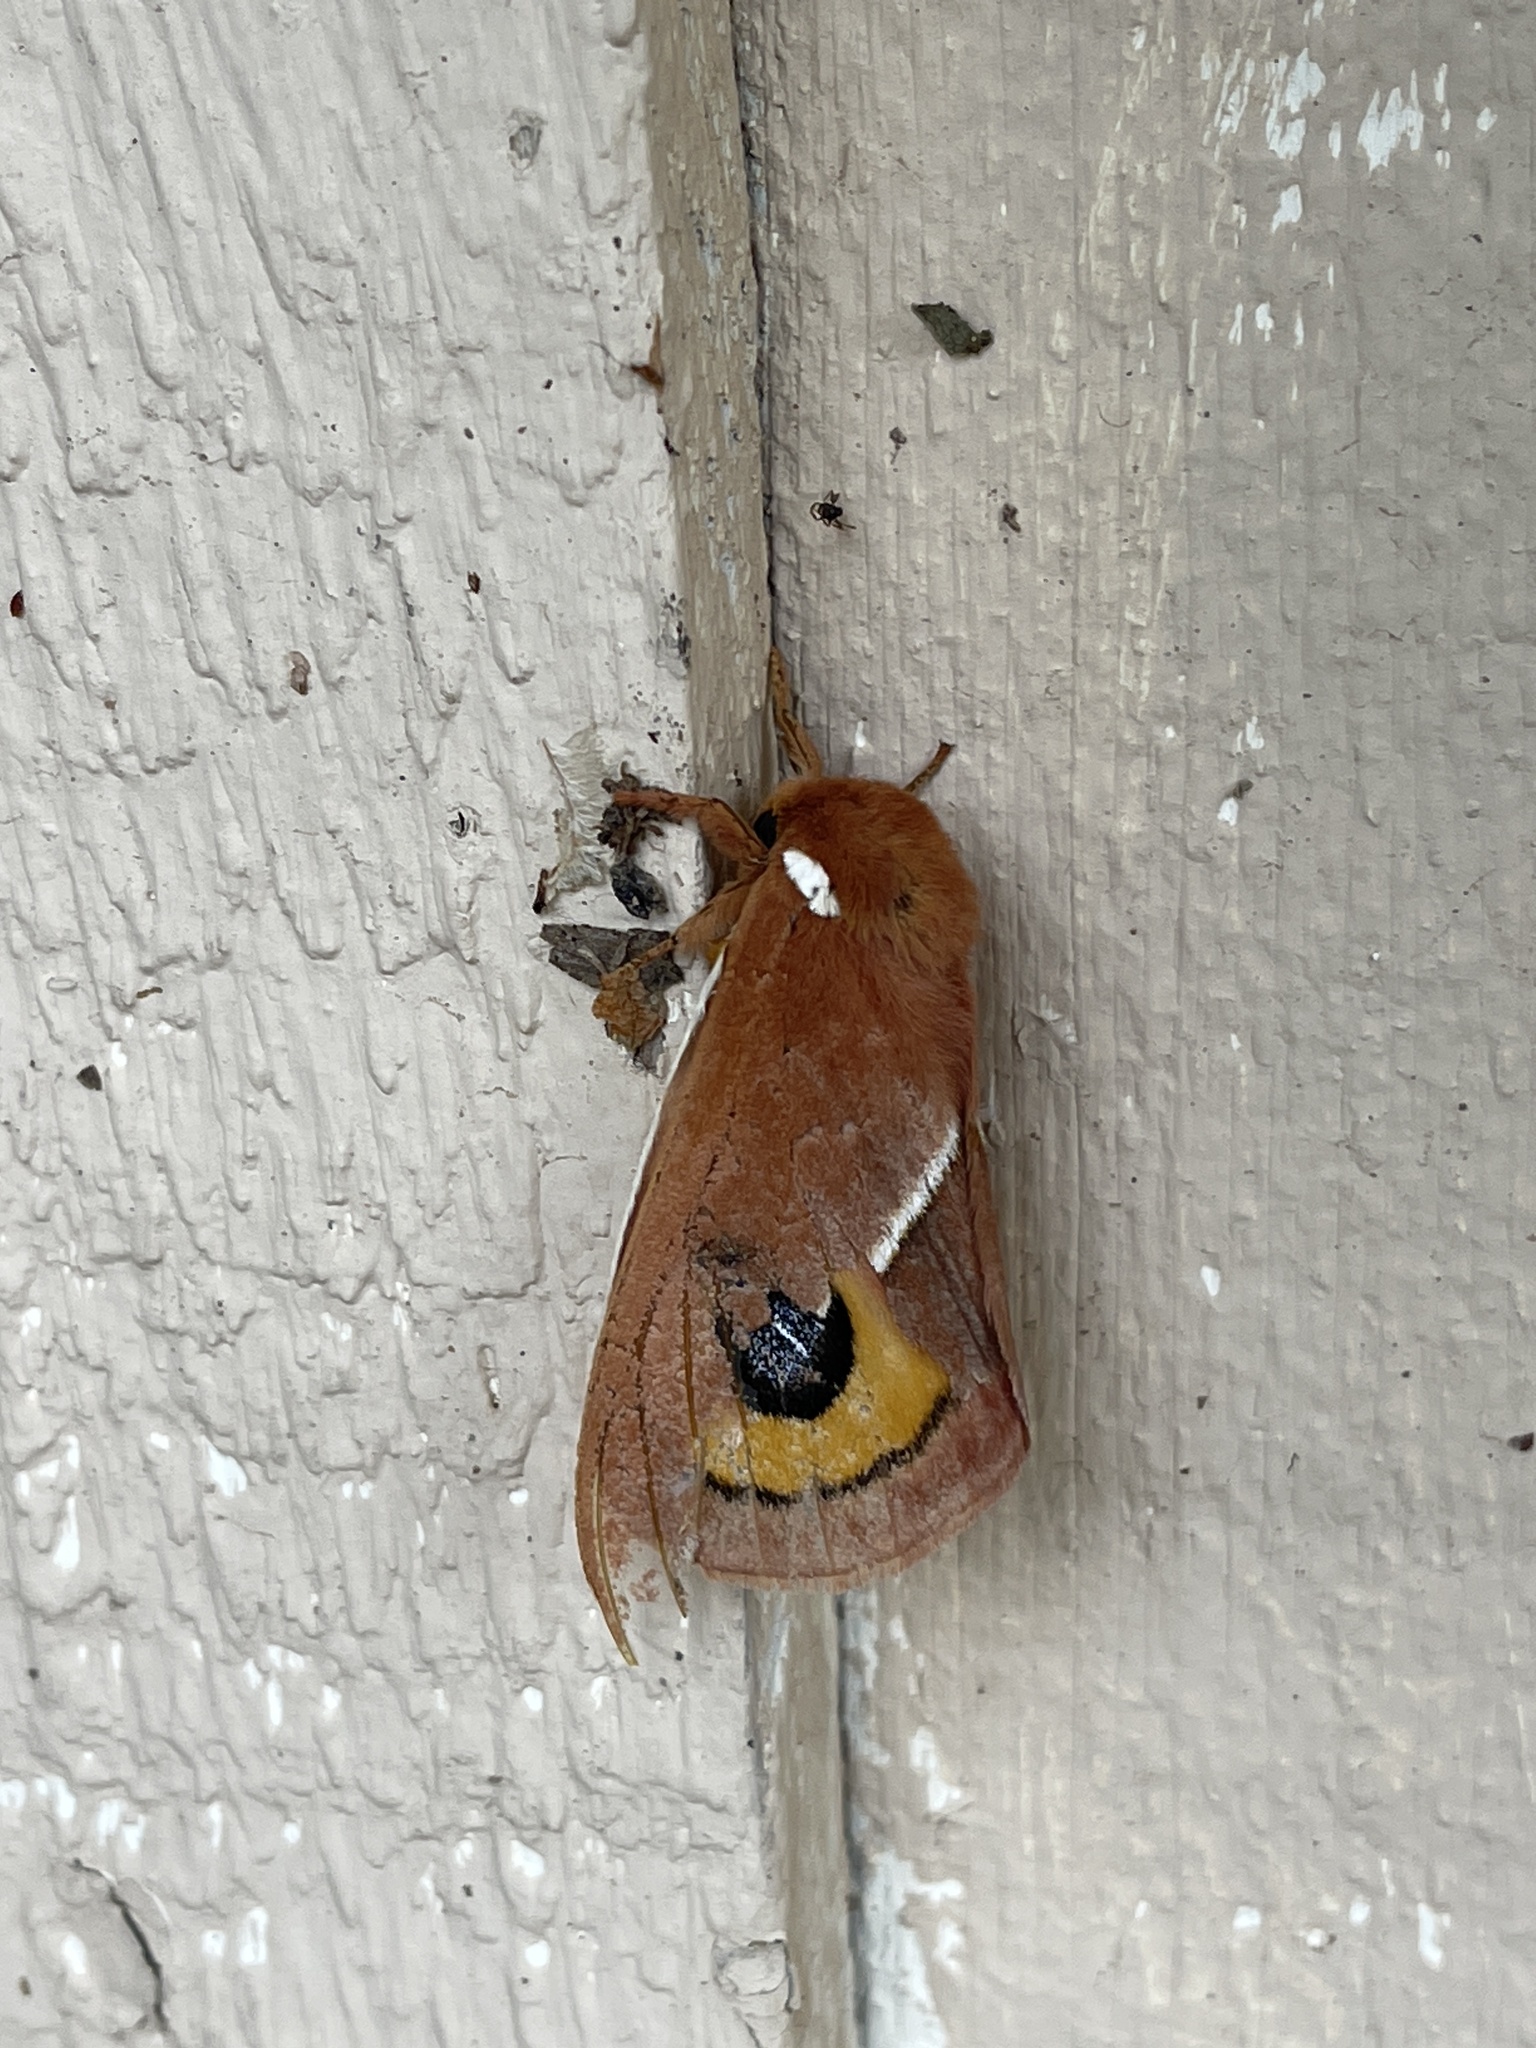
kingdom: Animalia
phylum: Arthropoda
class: Insecta
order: Lepidoptera
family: Saturniidae
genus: Automeris
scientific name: Automeris zephyria
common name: Zephyr eyed silkmoth
